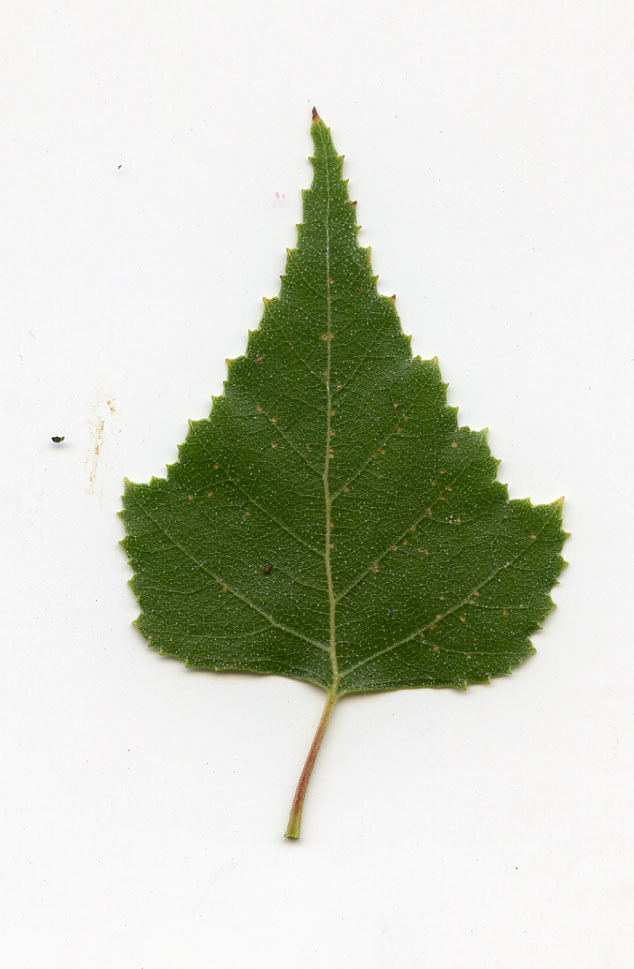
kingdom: Plantae
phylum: Tracheophyta
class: Magnoliopsida
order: Fagales
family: Betulaceae
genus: Betula
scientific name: Betula populifolia
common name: Fire birch
